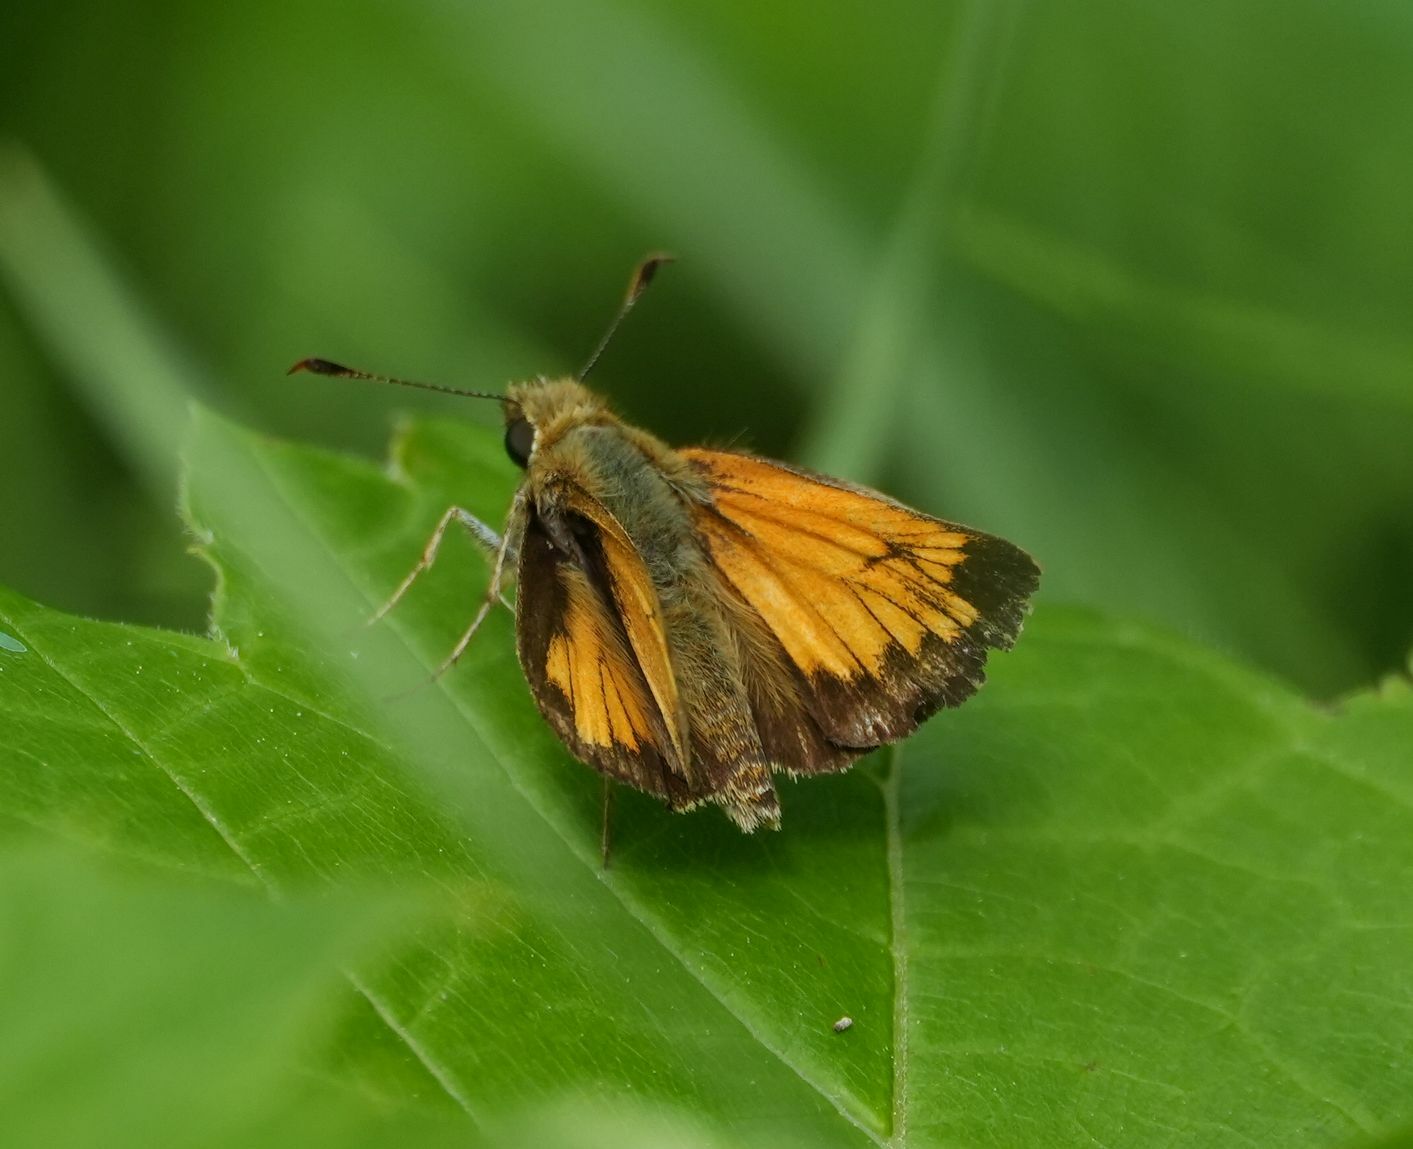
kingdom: Animalia
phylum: Arthropoda
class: Insecta
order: Lepidoptera
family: Hesperiidae
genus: Lon
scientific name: Lon hobomok
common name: Hobomok skipper
